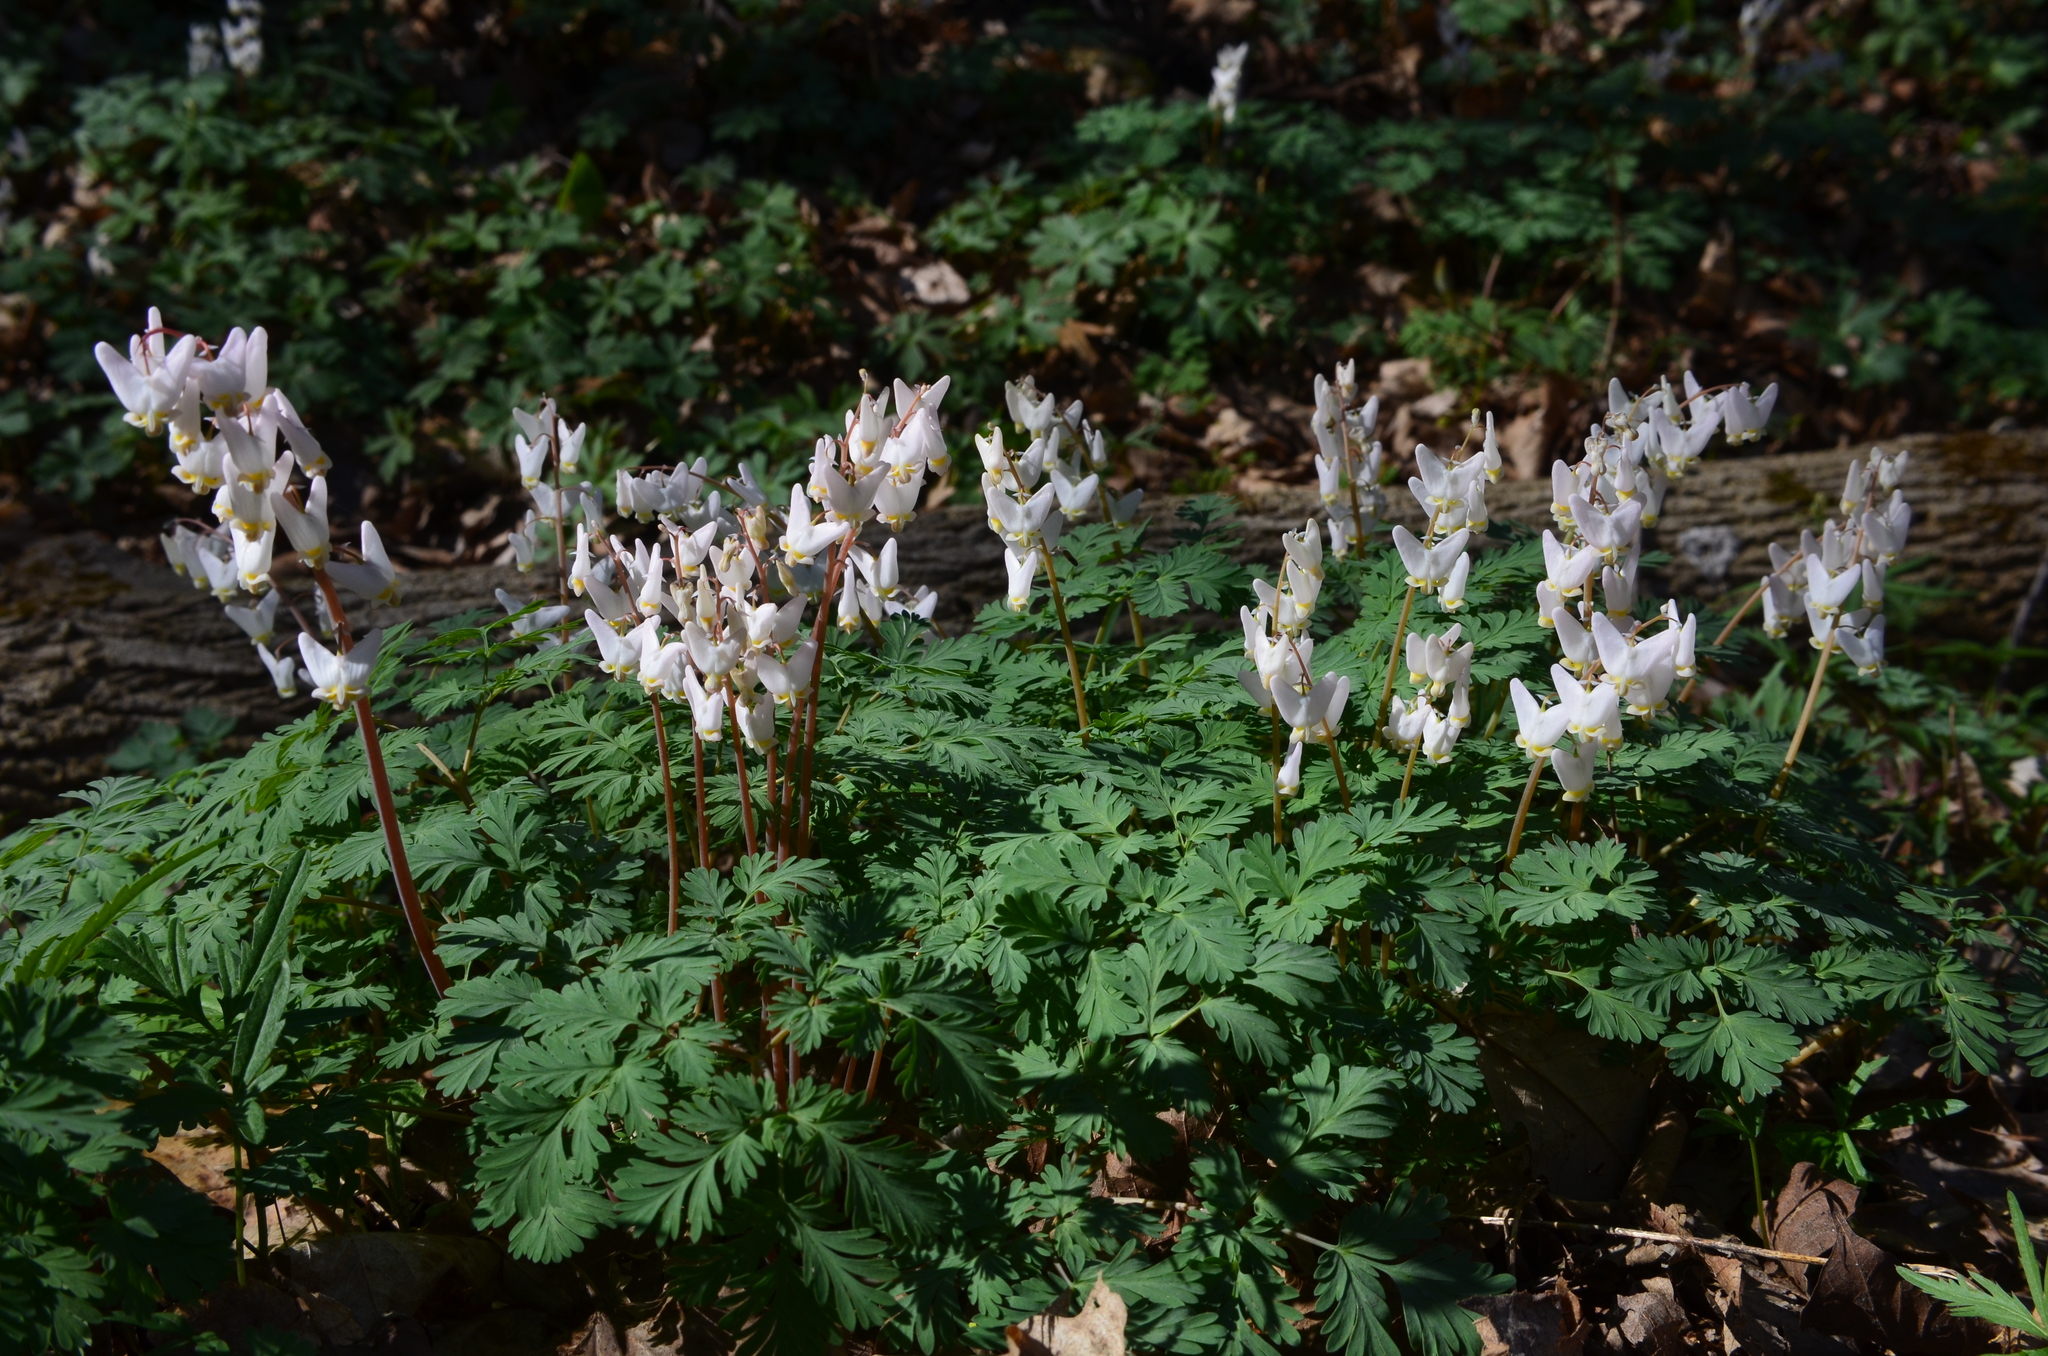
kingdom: Plantae
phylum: Tracheophyta
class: Magnoliopsida
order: Ranunculales
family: Papaveraceae
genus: Dicentra
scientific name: Dicentra cucullaria
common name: Dutchman's breeches
